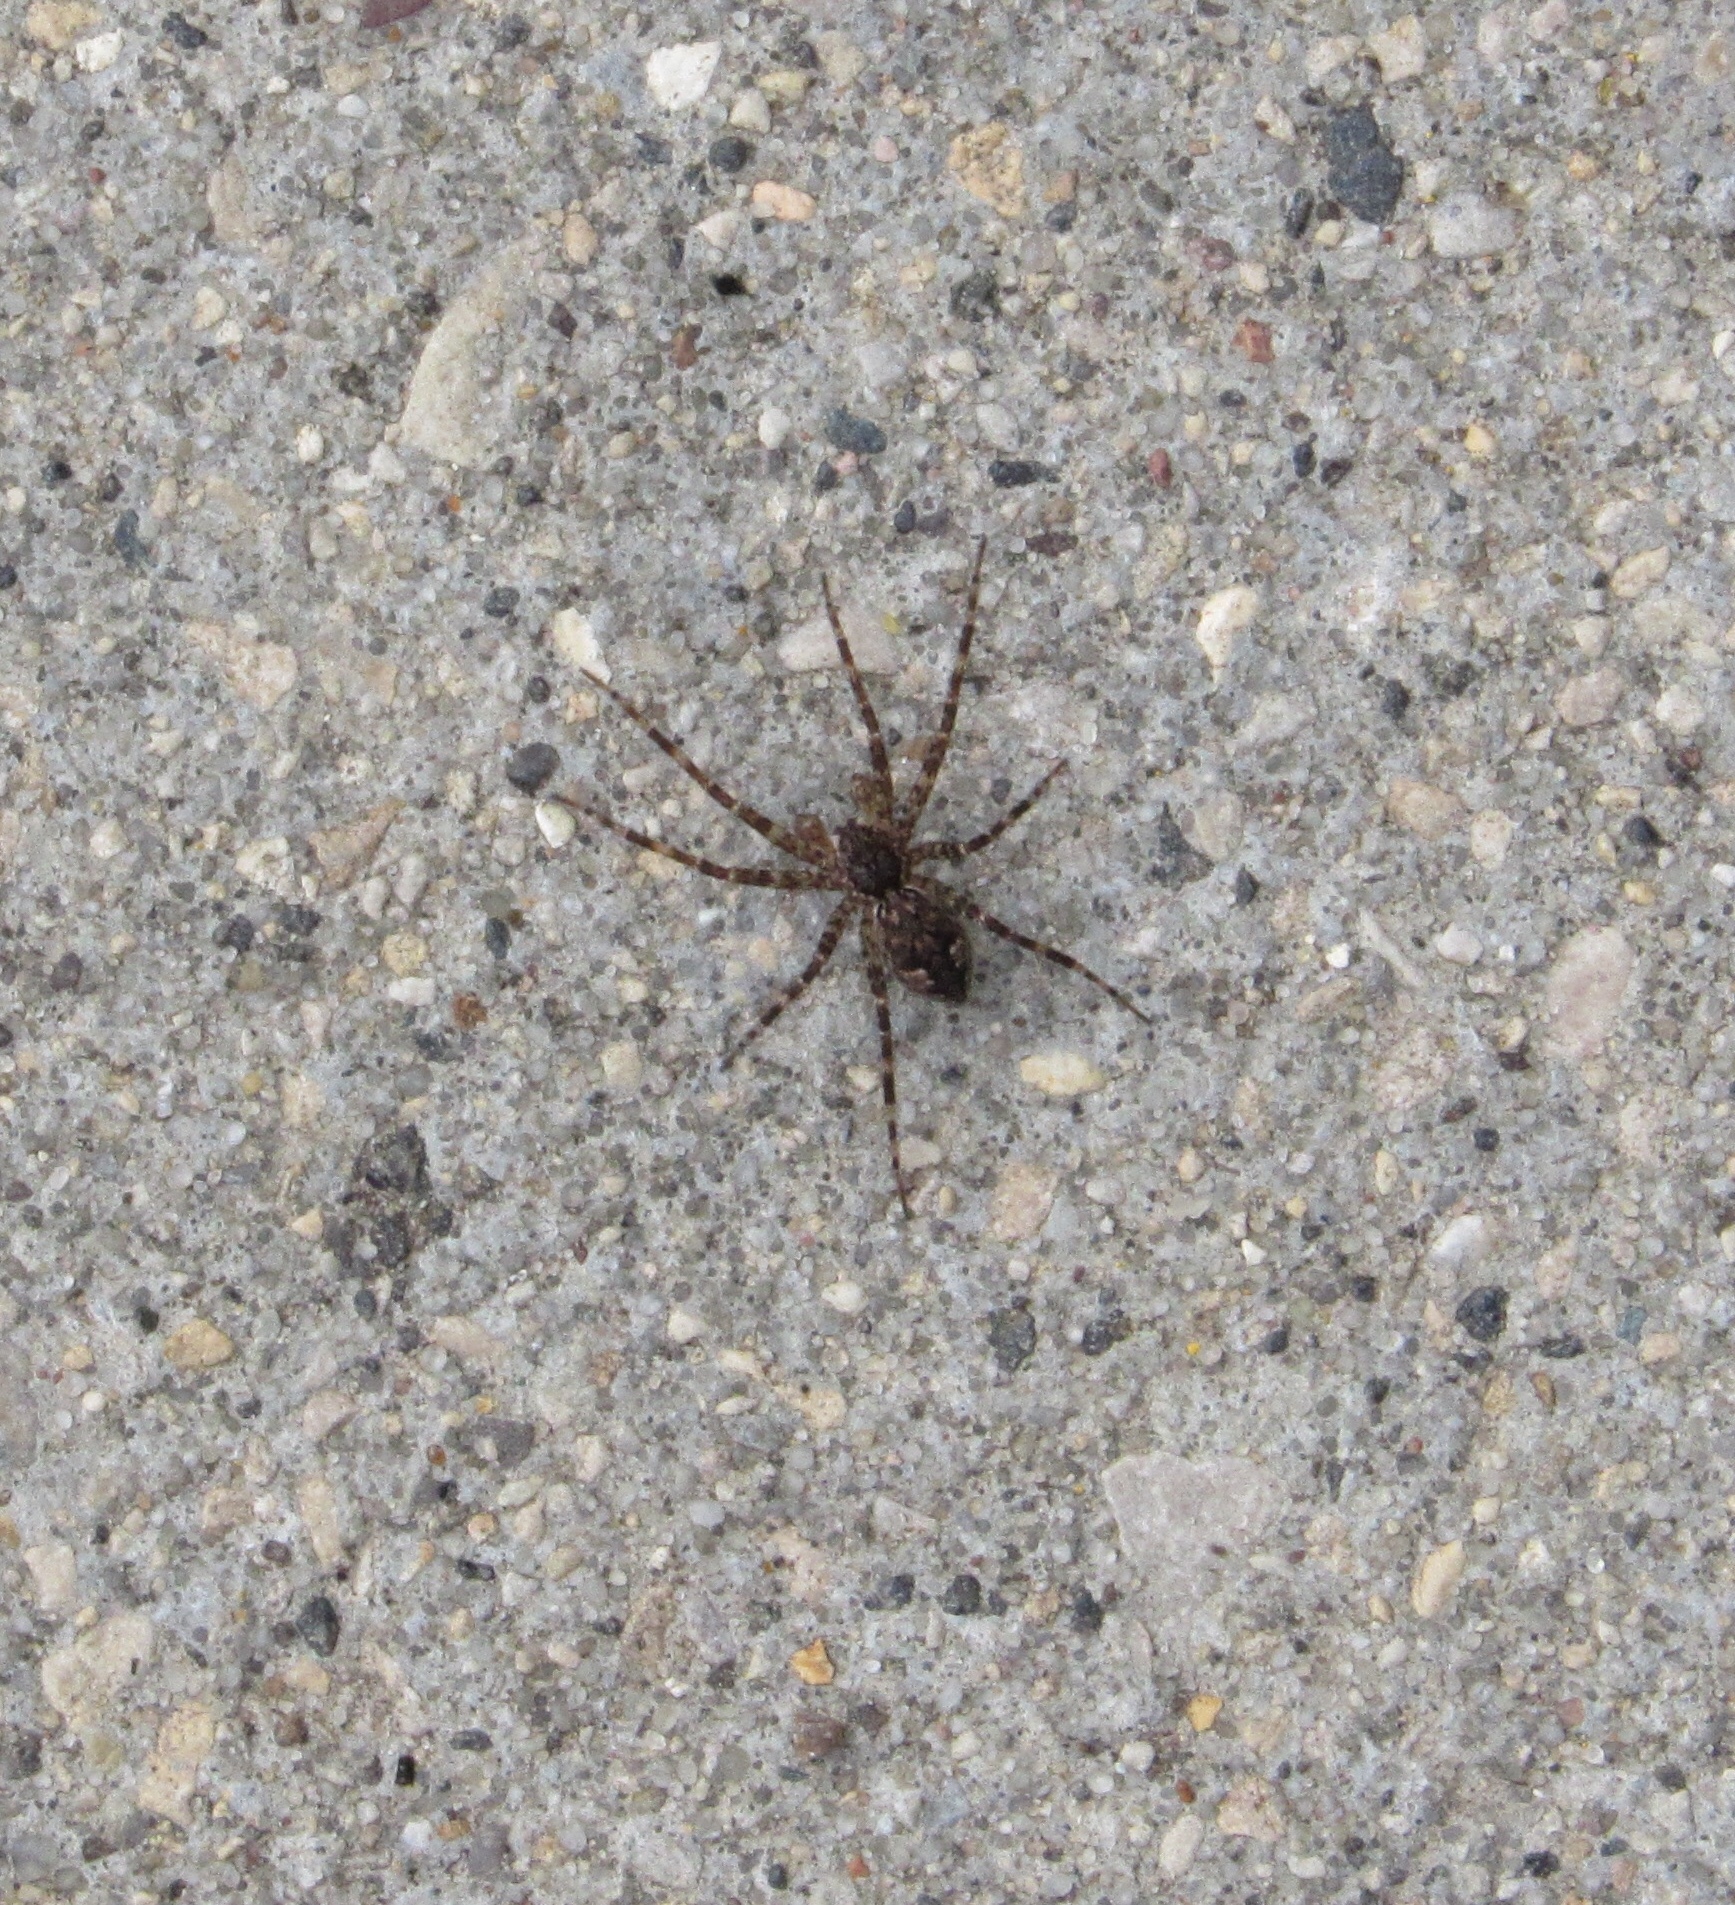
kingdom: Animalia
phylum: Arthropoda
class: Arachnida
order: Araneae
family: Pisauridae
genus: Dolomedes
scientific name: Dolomedes tenebrosus
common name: Dark fishing spider
